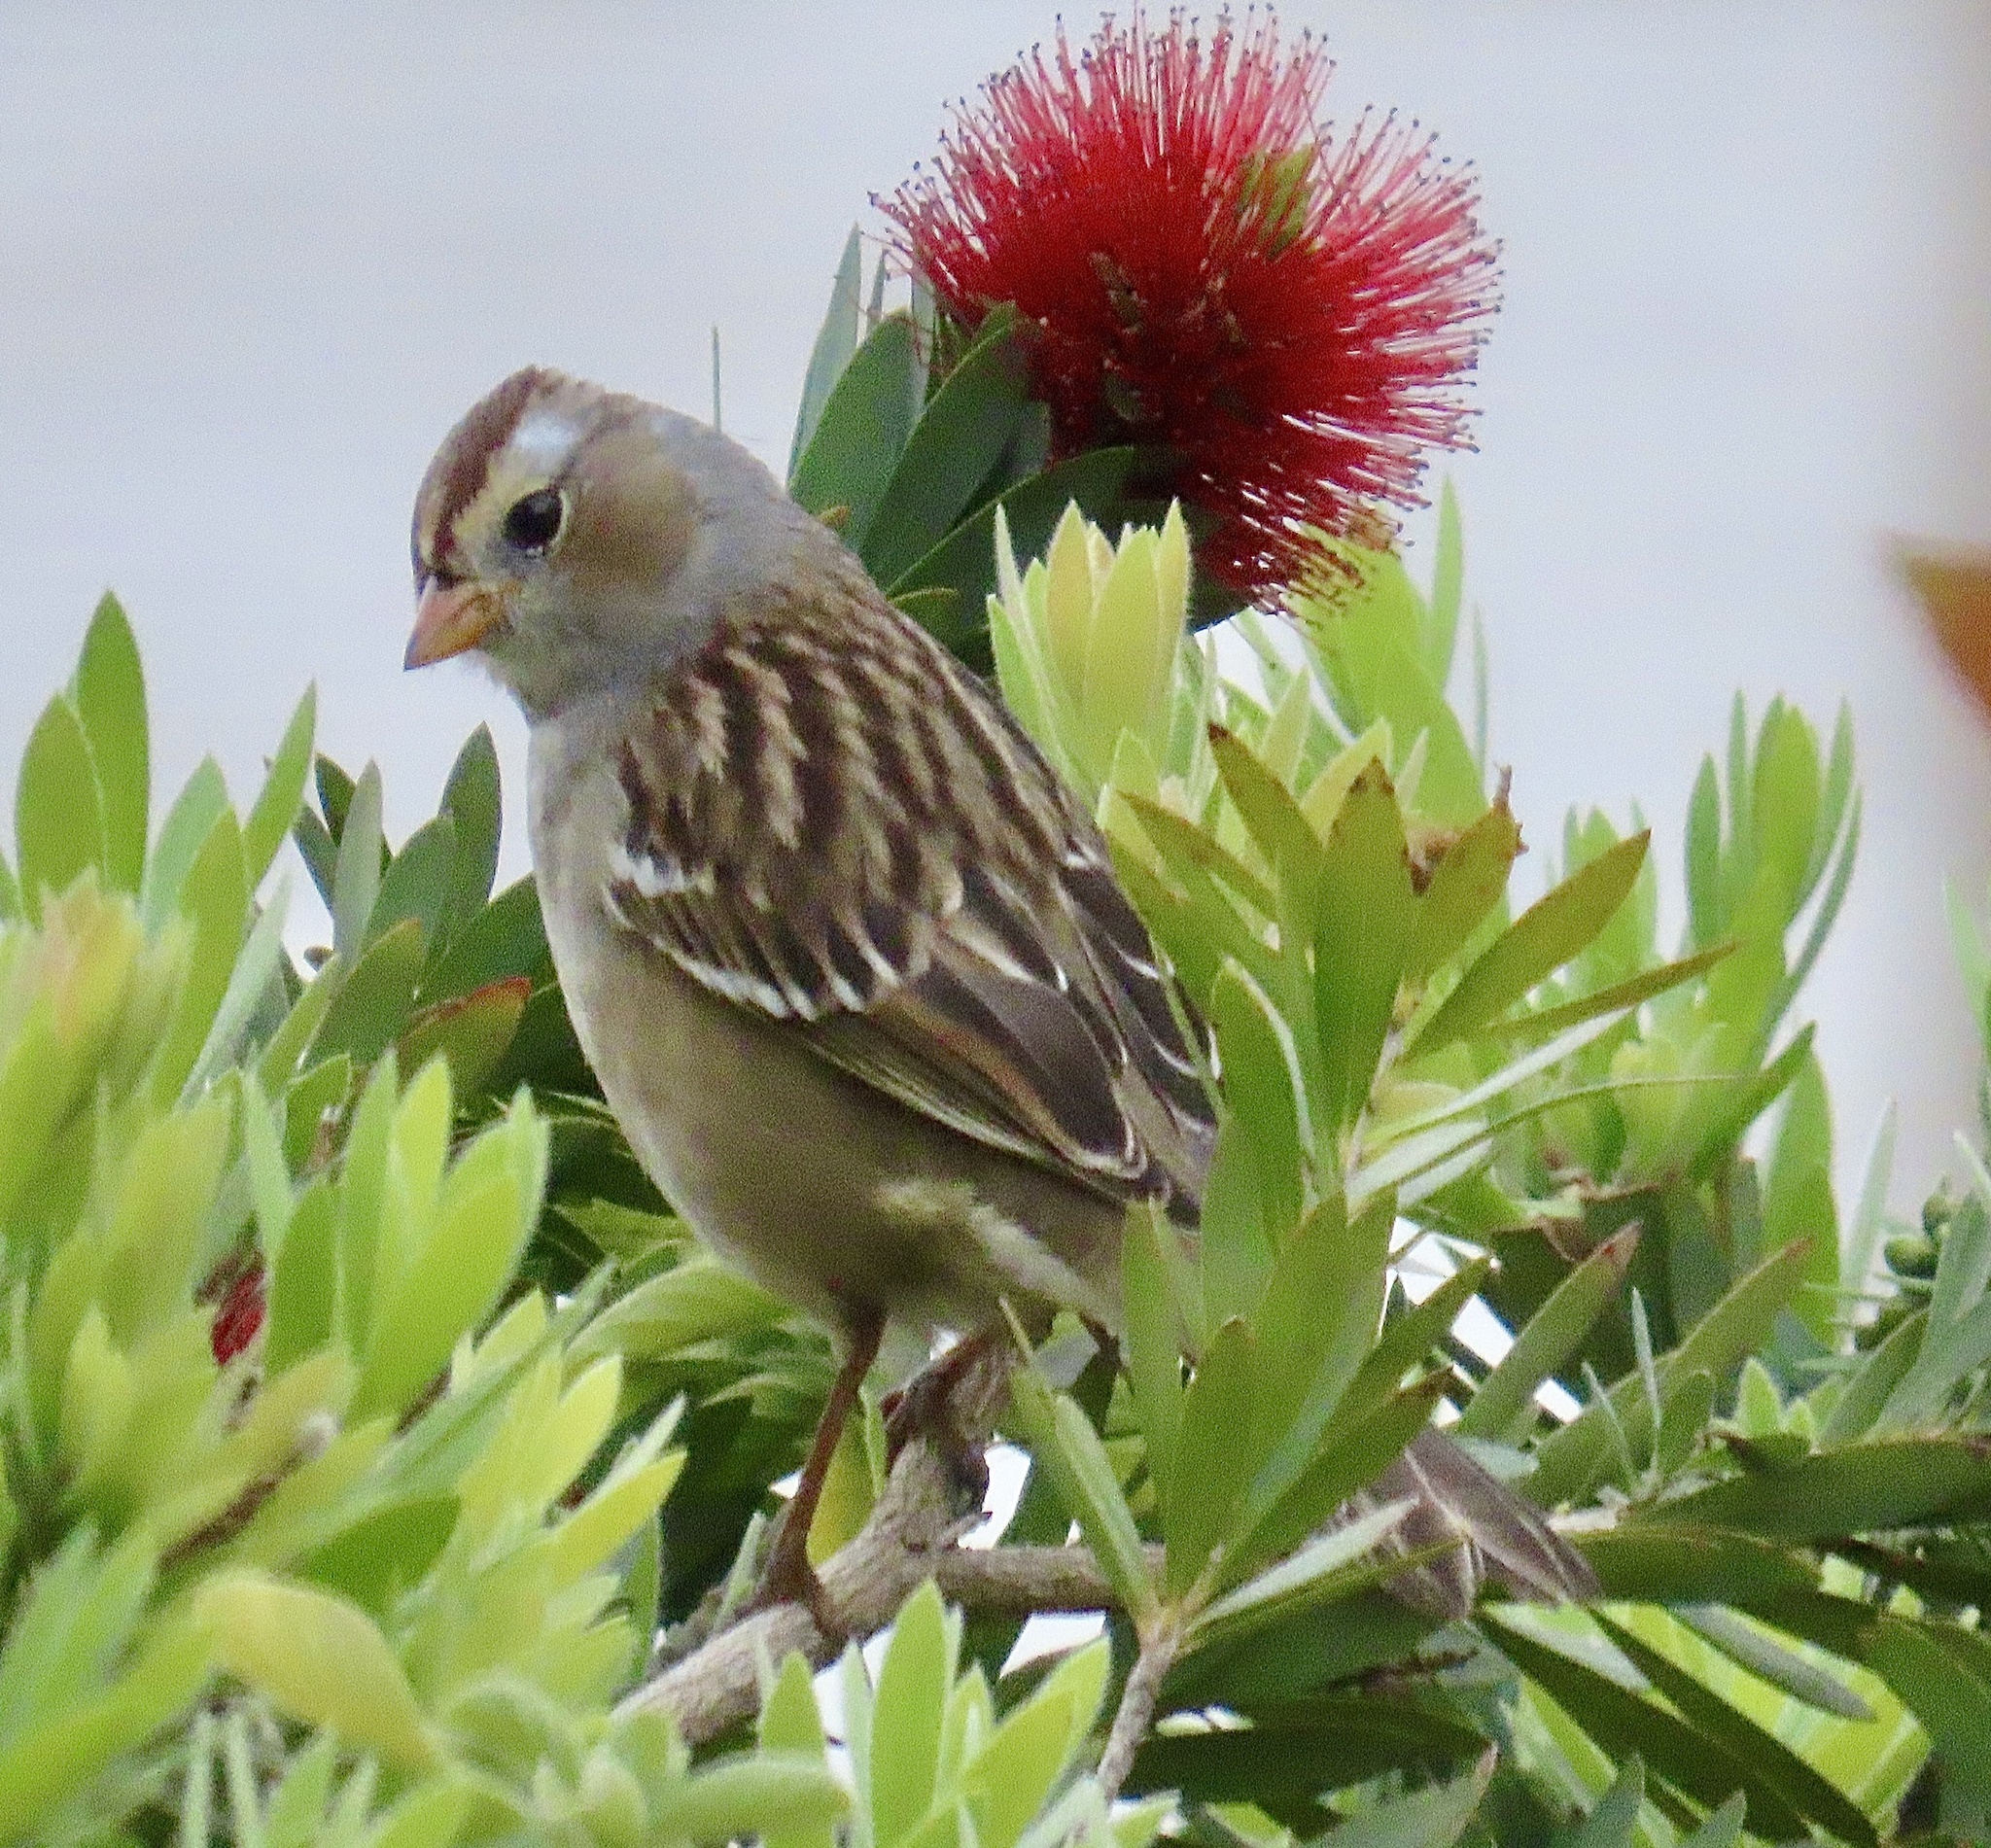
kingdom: Animalia
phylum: Chordata
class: Aves
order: Passeriformes
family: Passerellidae
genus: Zonotrichia
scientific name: Zonotrichia leucophrys
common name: White-crowned sparrow
